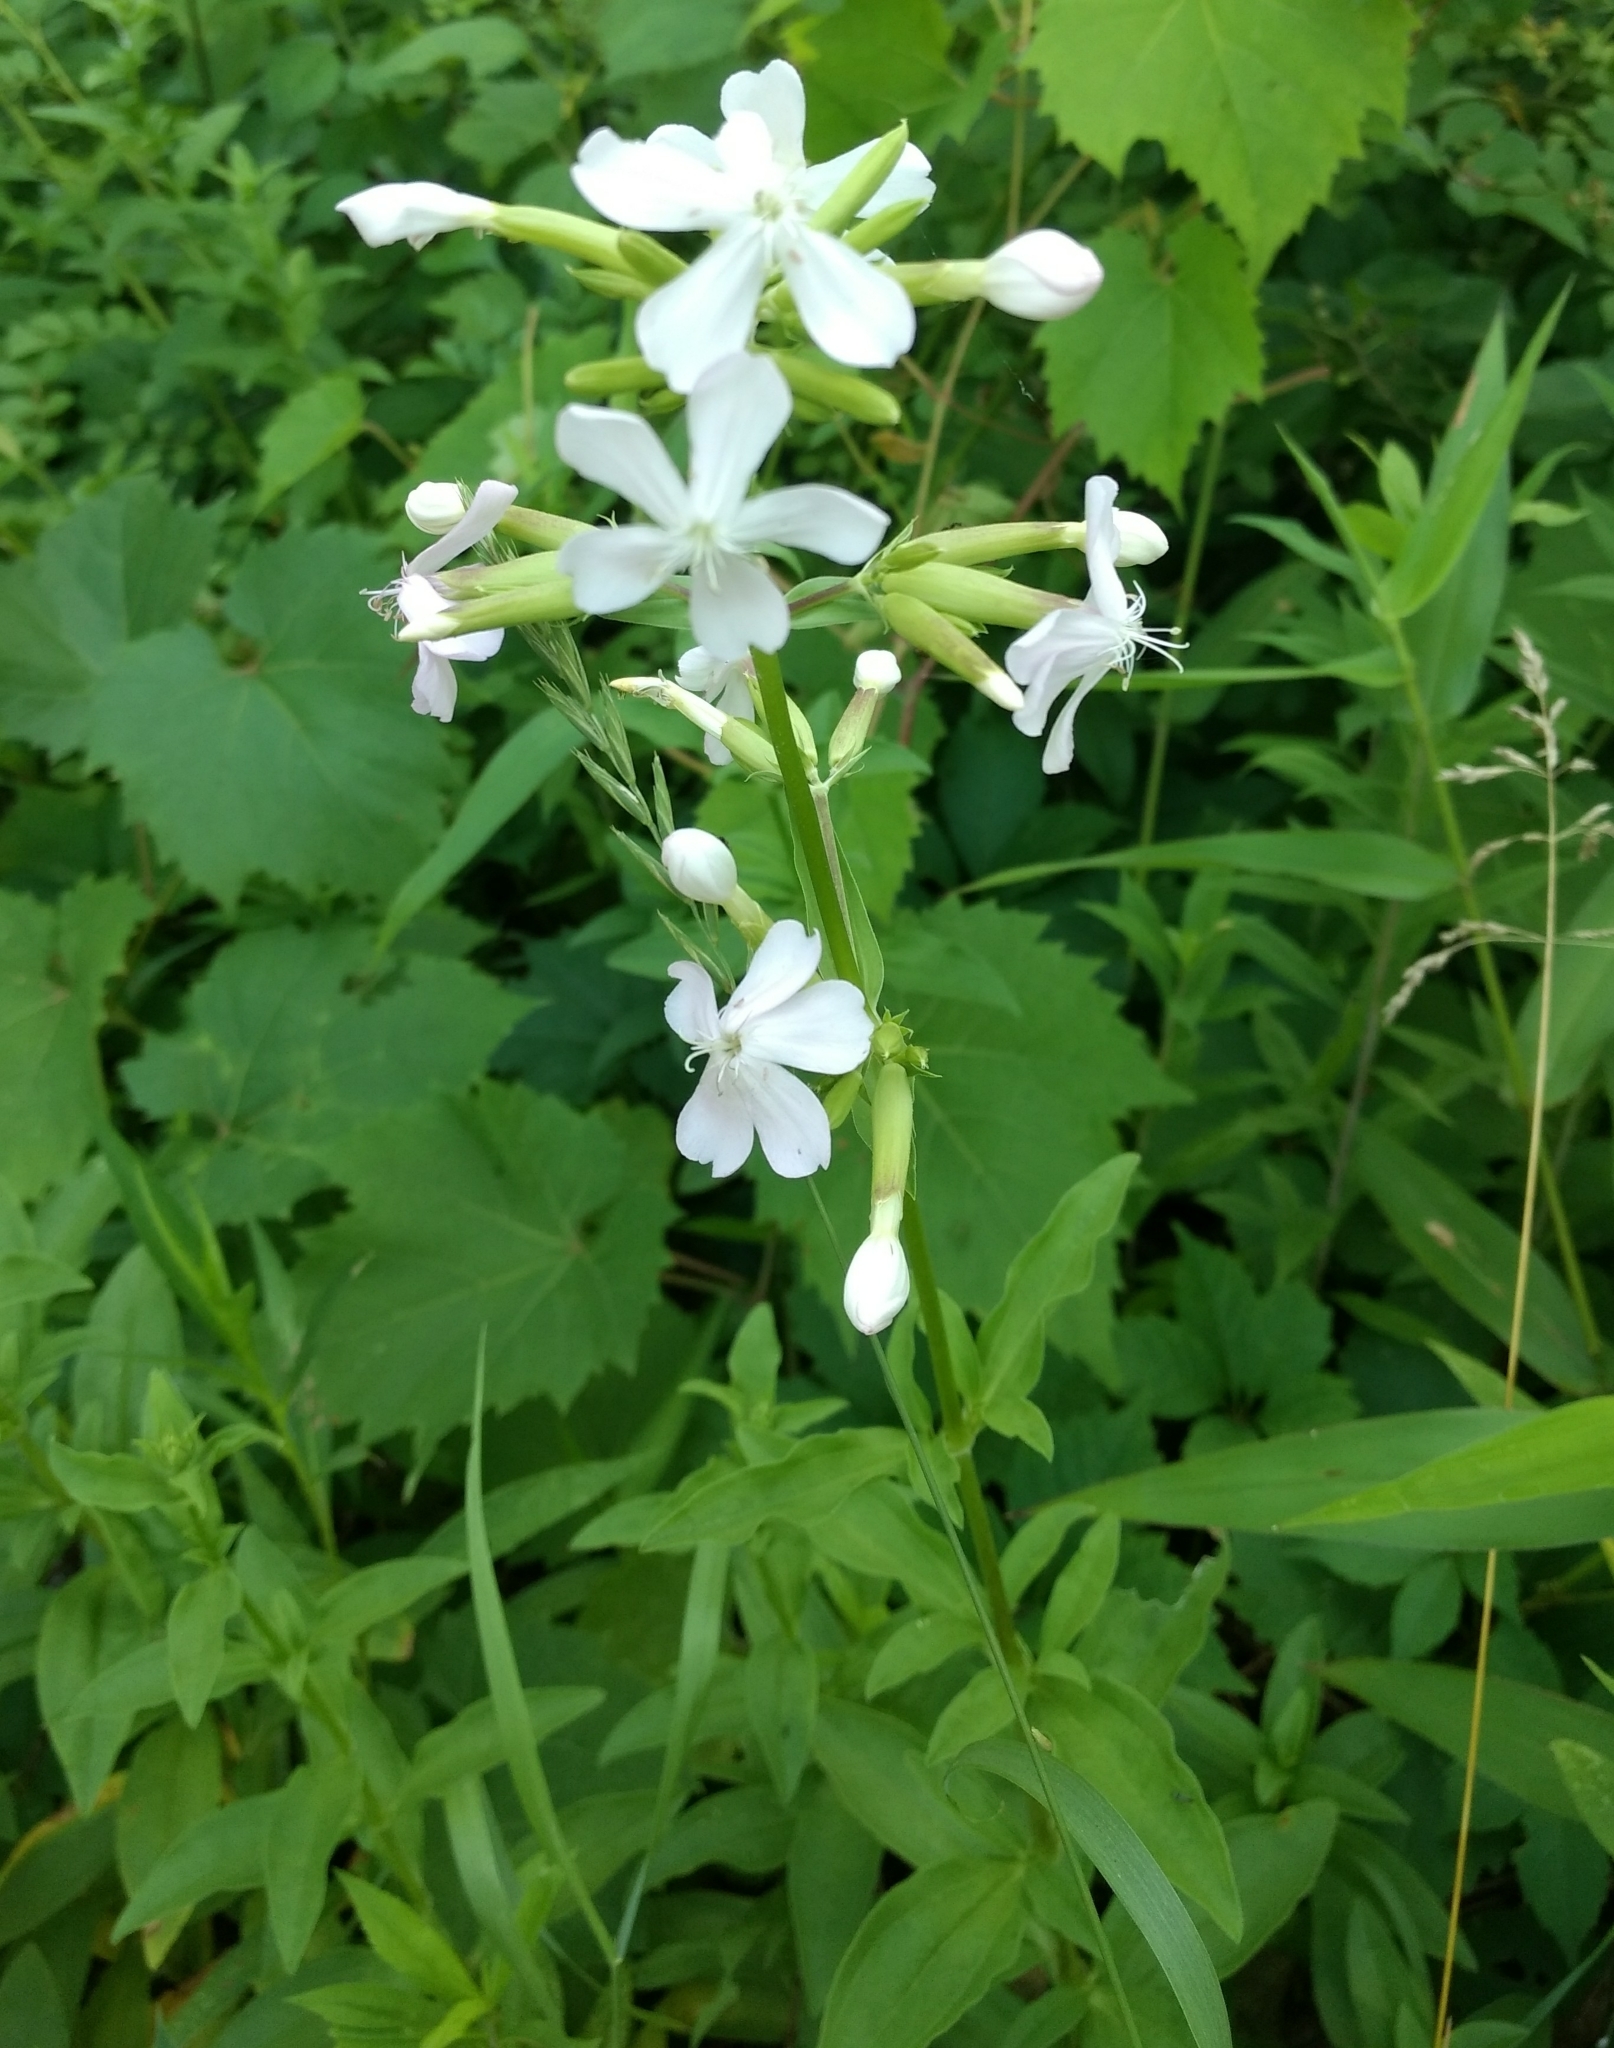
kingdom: Plantae
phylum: Tracheophyta
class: Magnoliopsida
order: Caryophyllales
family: Caryophyllaceae
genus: Saponaria
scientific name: Saponaria officinalis
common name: Soapwort
